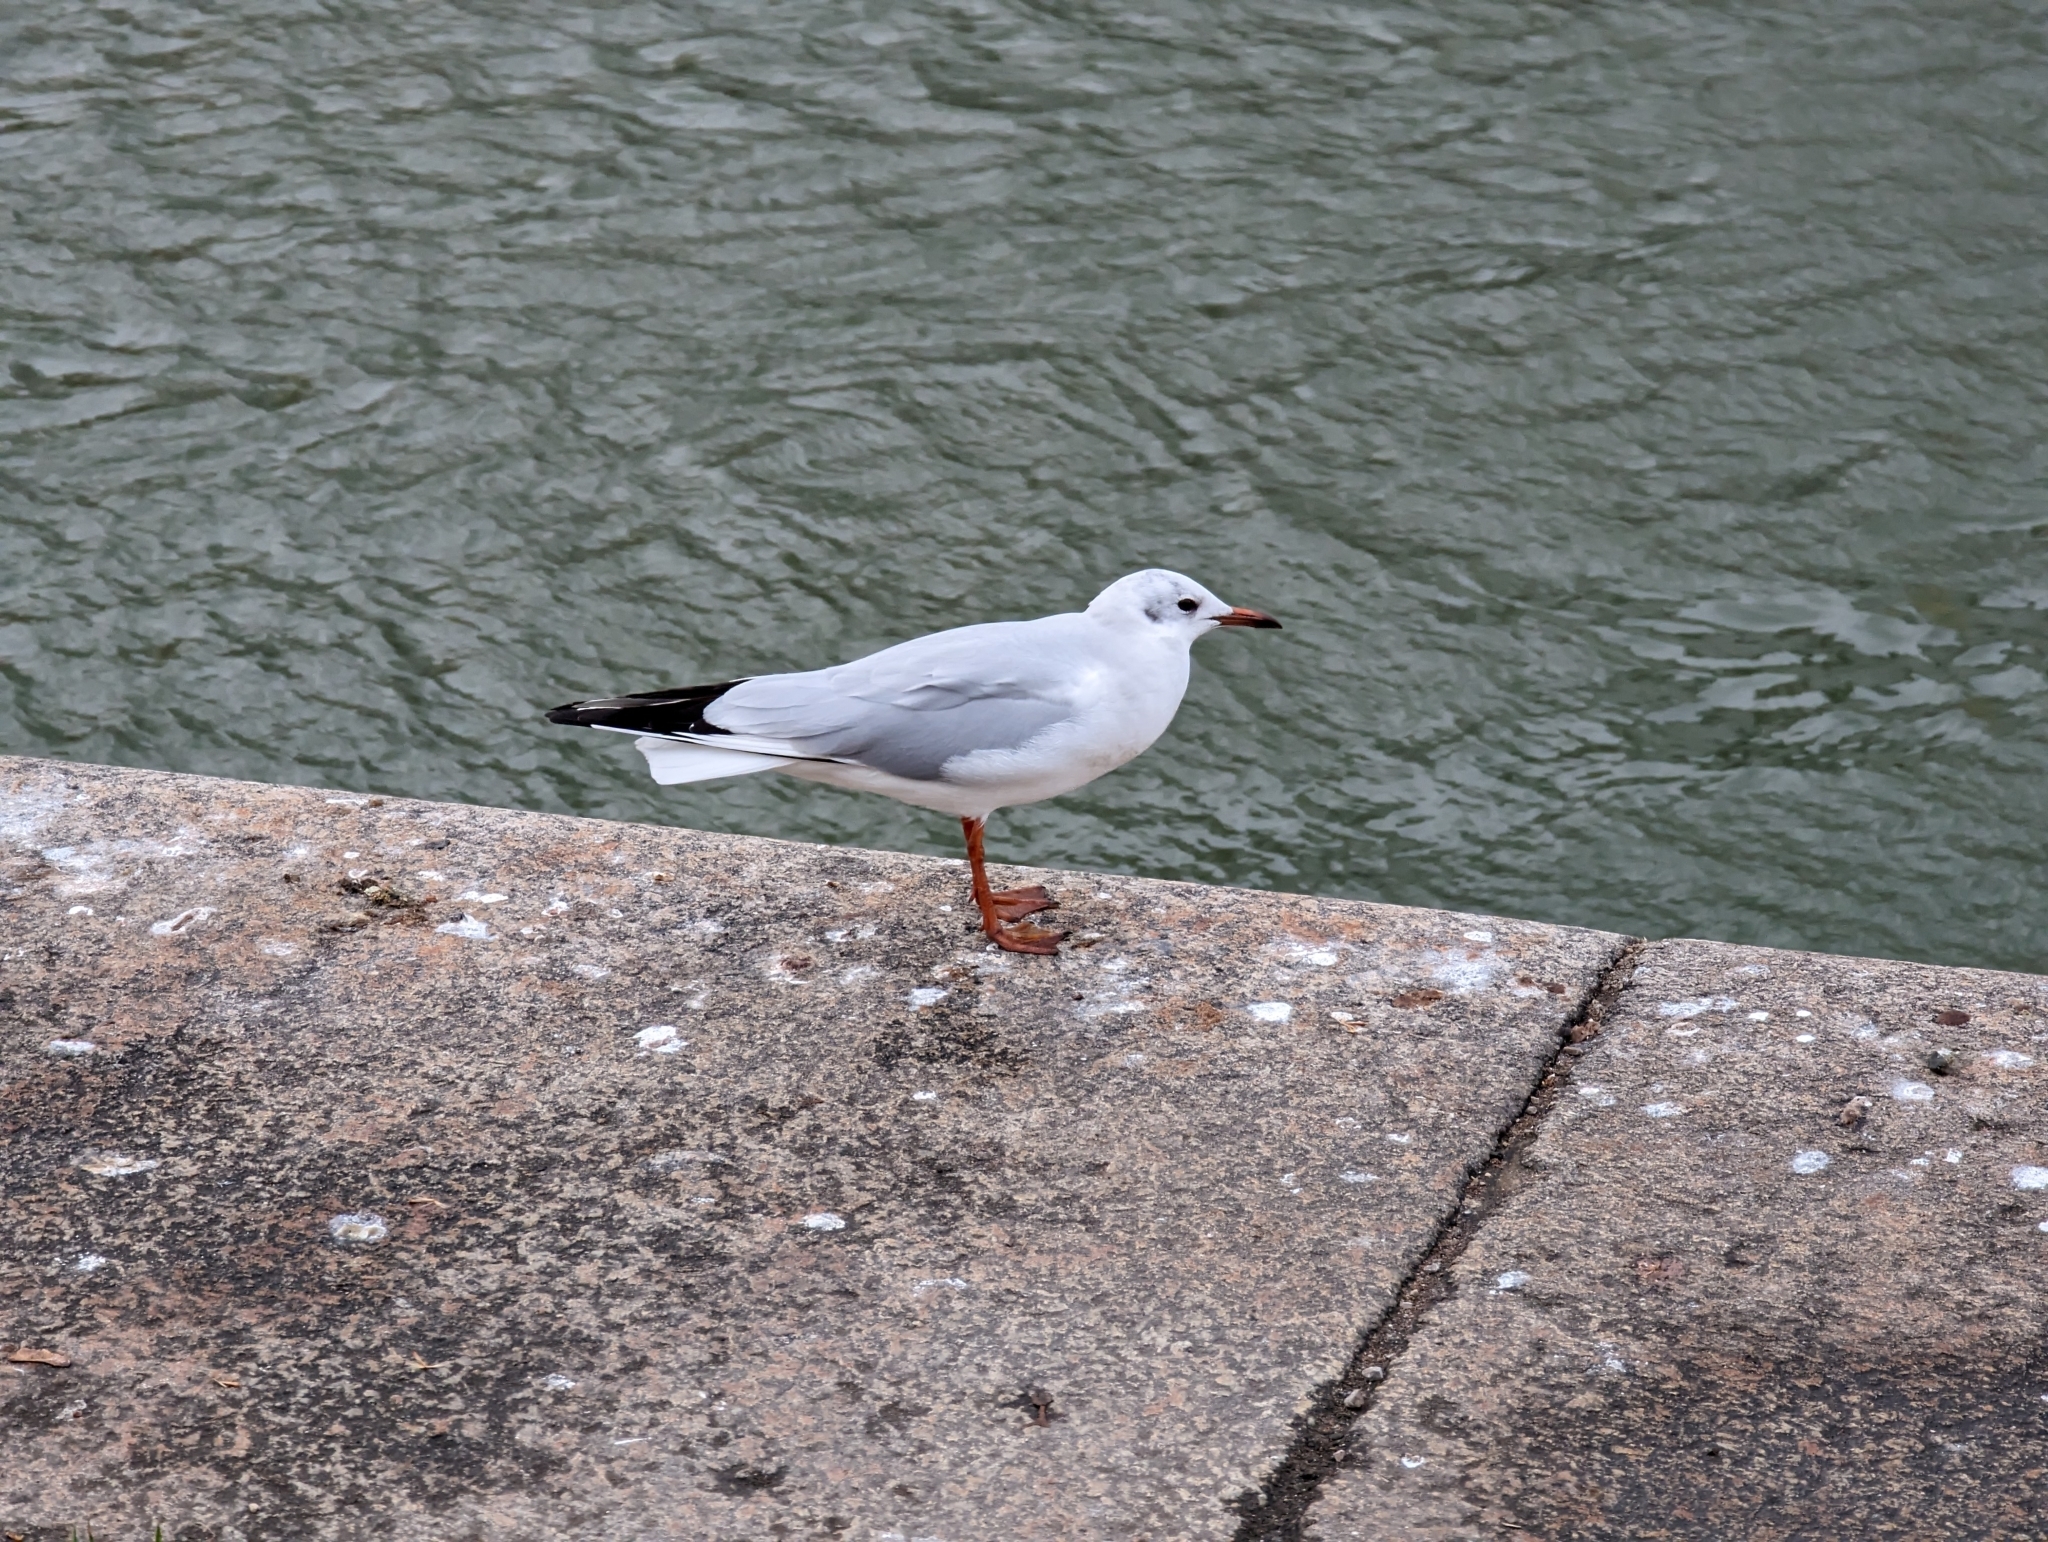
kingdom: Animalia
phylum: Chordata
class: Aves
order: Charadriiformes
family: Laridae
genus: Chroicocephalus
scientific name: Chroicocephalus ridibundus
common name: Black-headed gull
